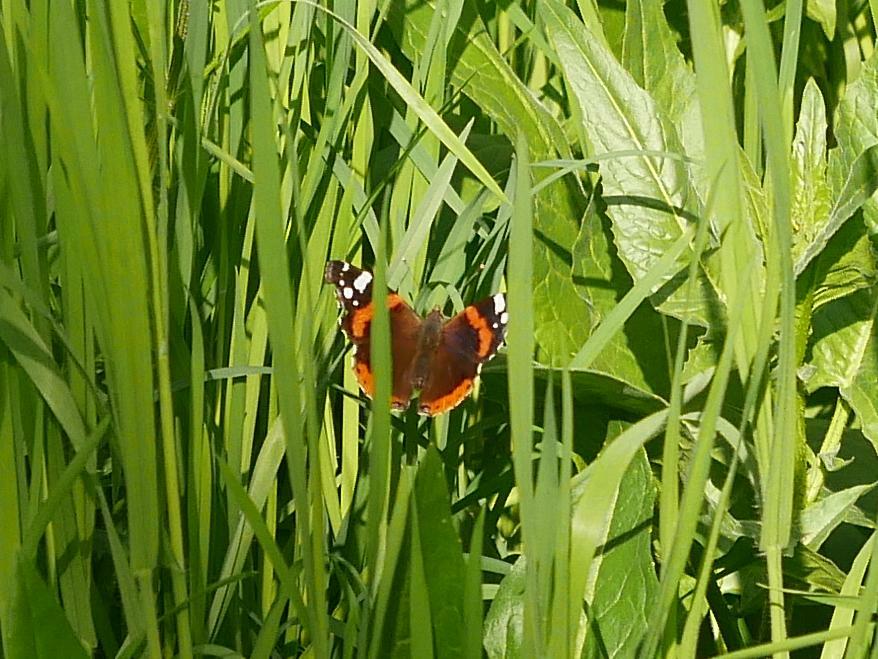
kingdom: Animalia
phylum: Arthropoda
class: Insecta
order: Lepidoptera
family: Nymphalidae
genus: Vanessa
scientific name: Vanessa atalanta
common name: Red admiral
